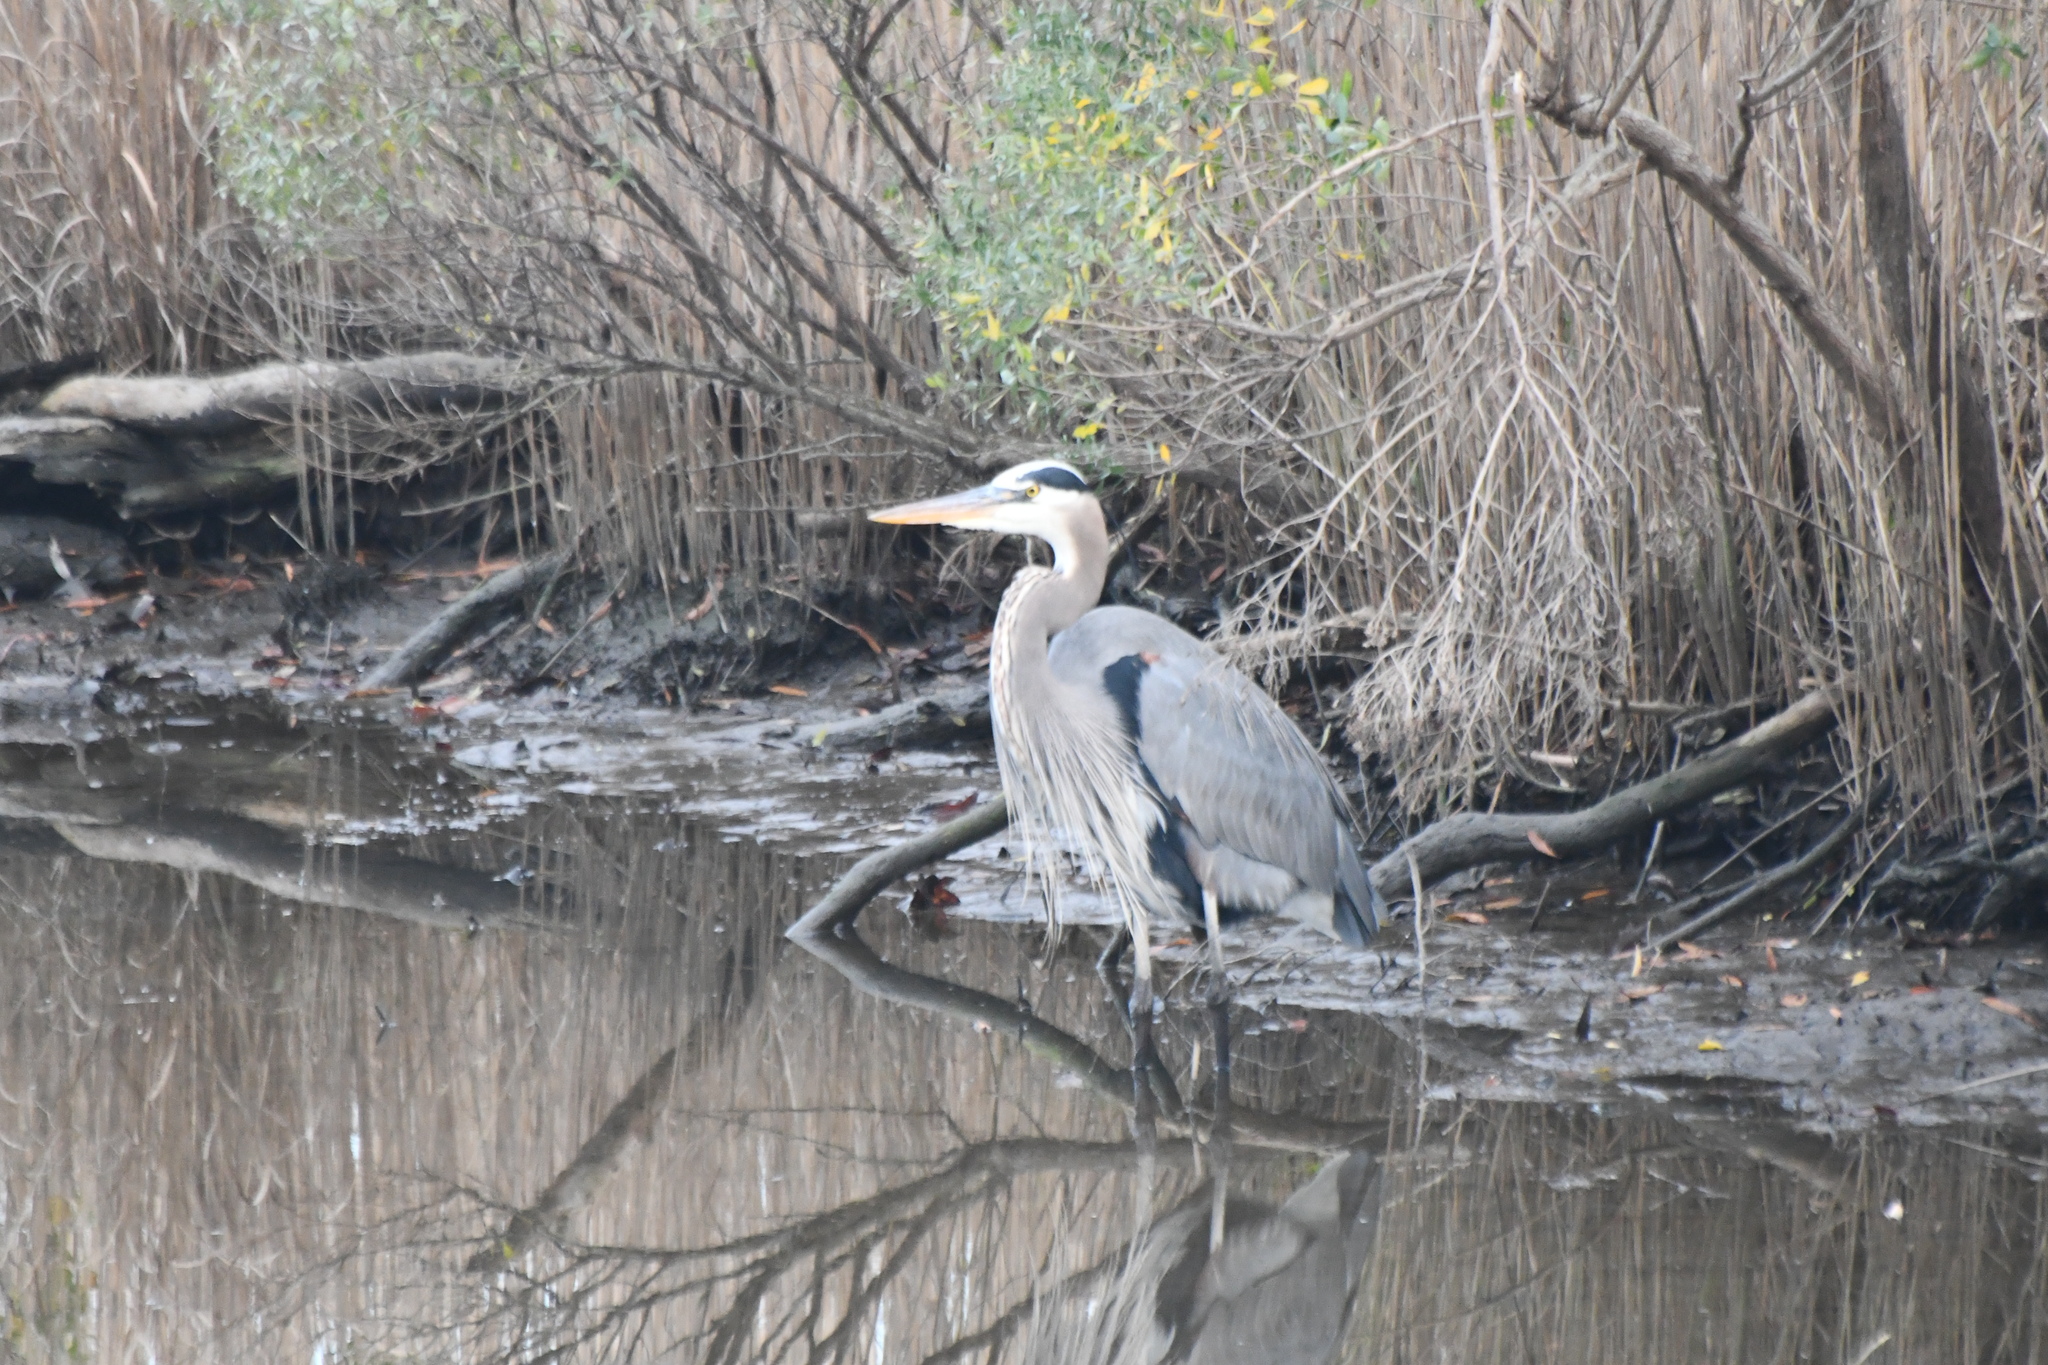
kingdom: Animalia
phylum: Chordata
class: Aves
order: Pelecaniformes
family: Ardeidae
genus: Ardea
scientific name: Ardea herodias
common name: Great blue heron
